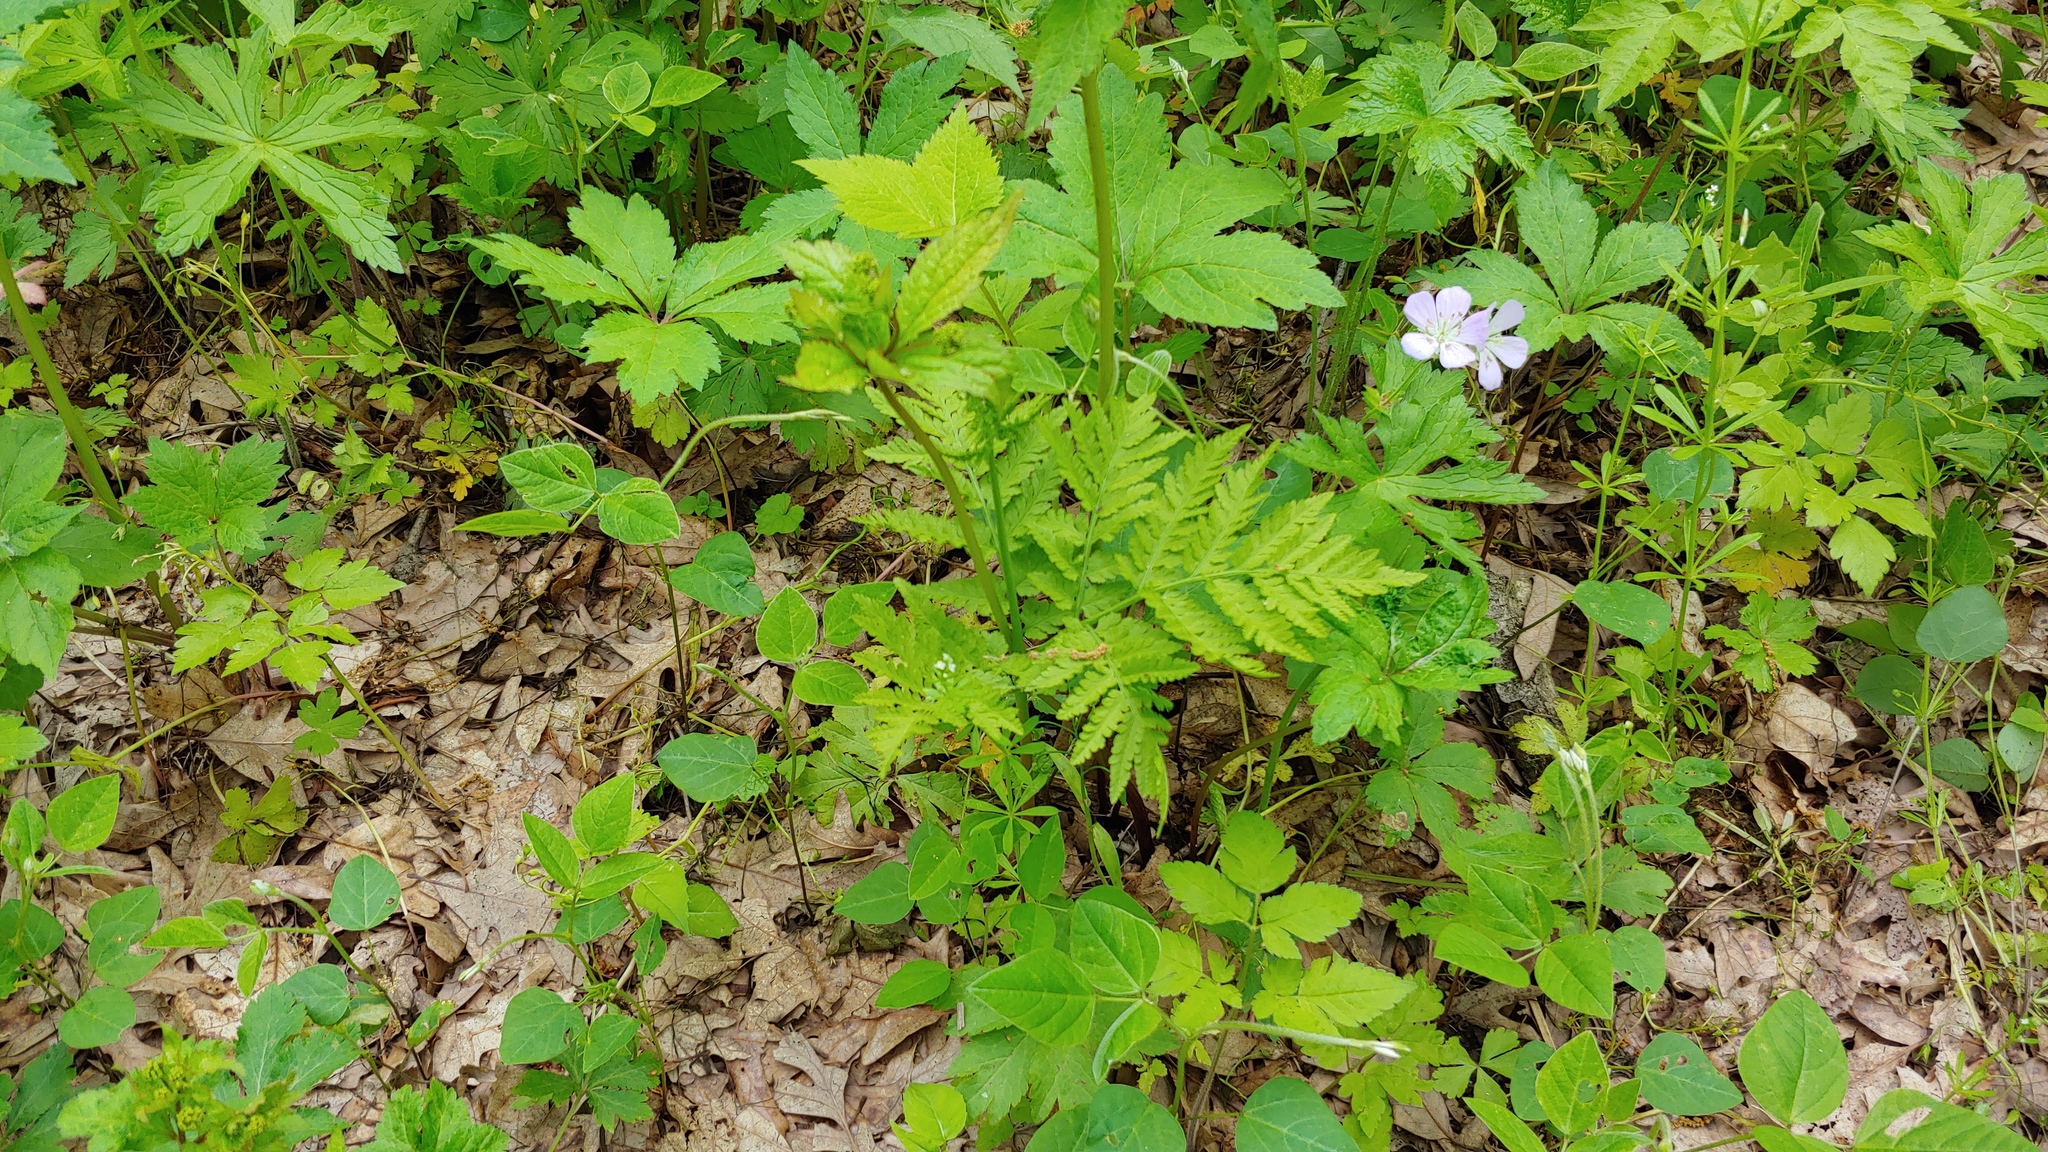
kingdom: Plantae
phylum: Tracheophyta
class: Polypodiopsida
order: Ophioglossales
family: Ophioglossaceae
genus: Botrypus
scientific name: Botrypus virginianus
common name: Common grapefern
